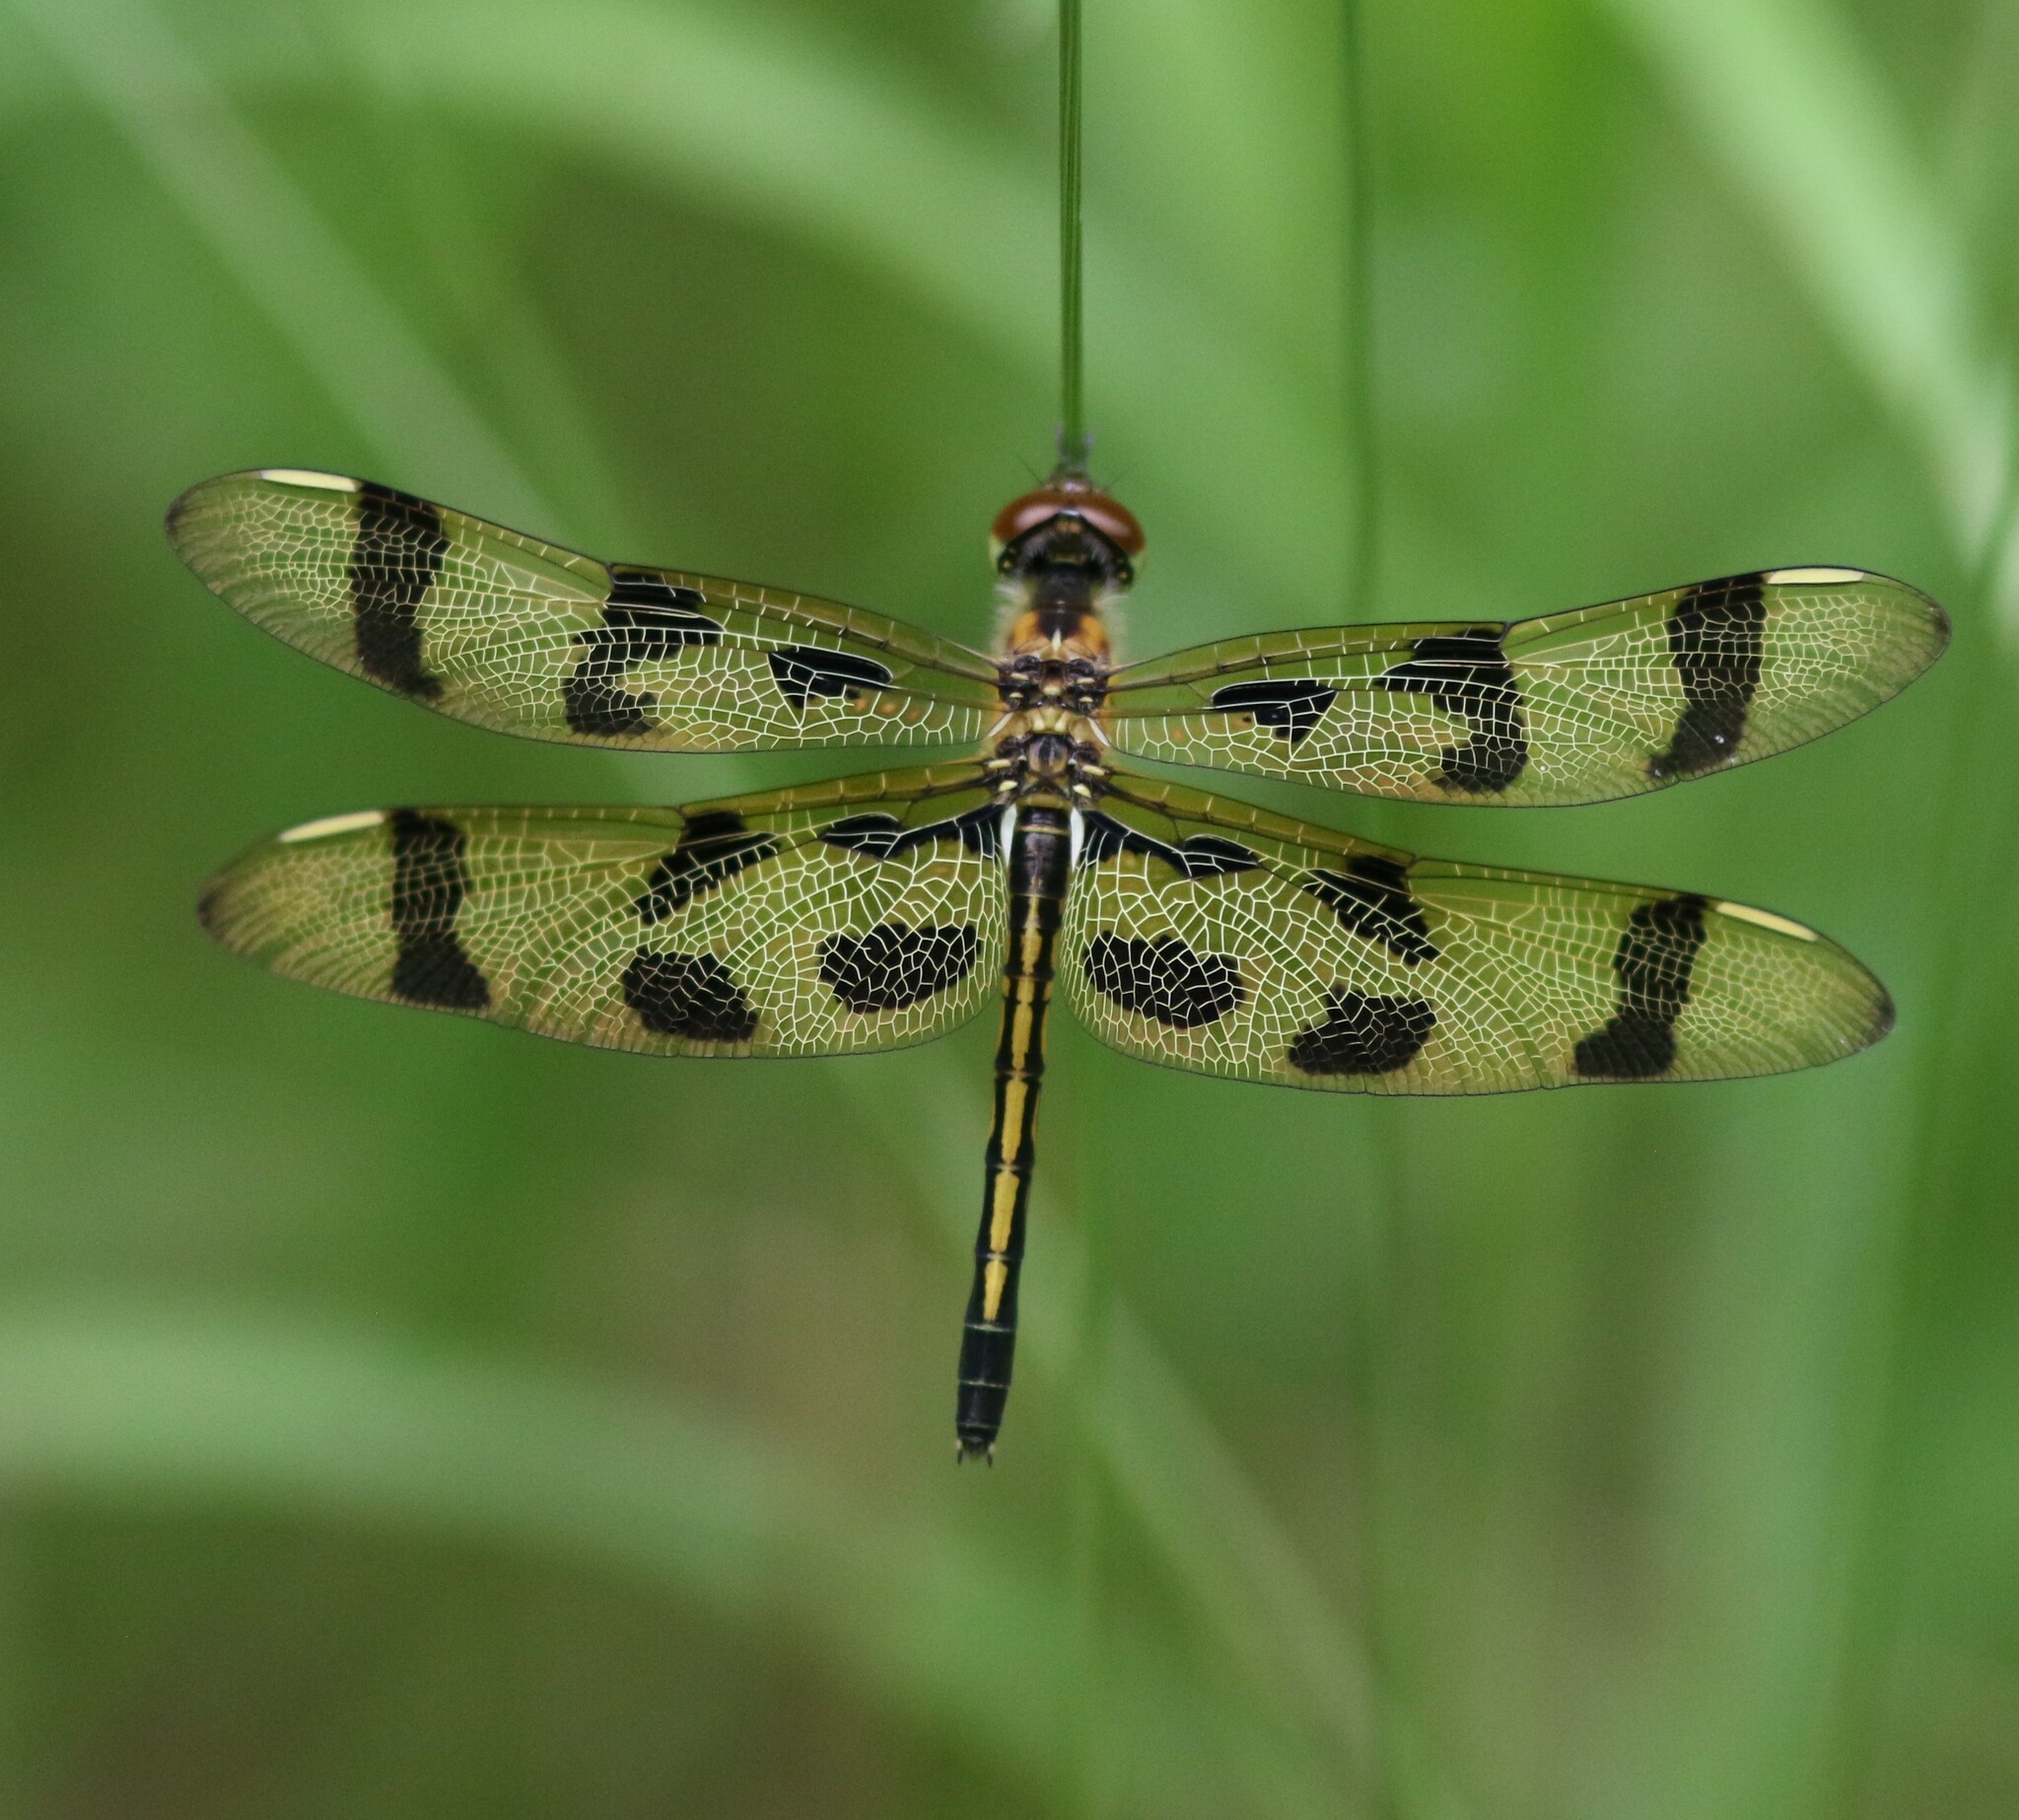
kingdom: Animalia
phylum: Arthropoda
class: Insecta
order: Odonata
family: Libellulidae
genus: Celithemis
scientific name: Celithemis eponina
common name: Halloween pennant
